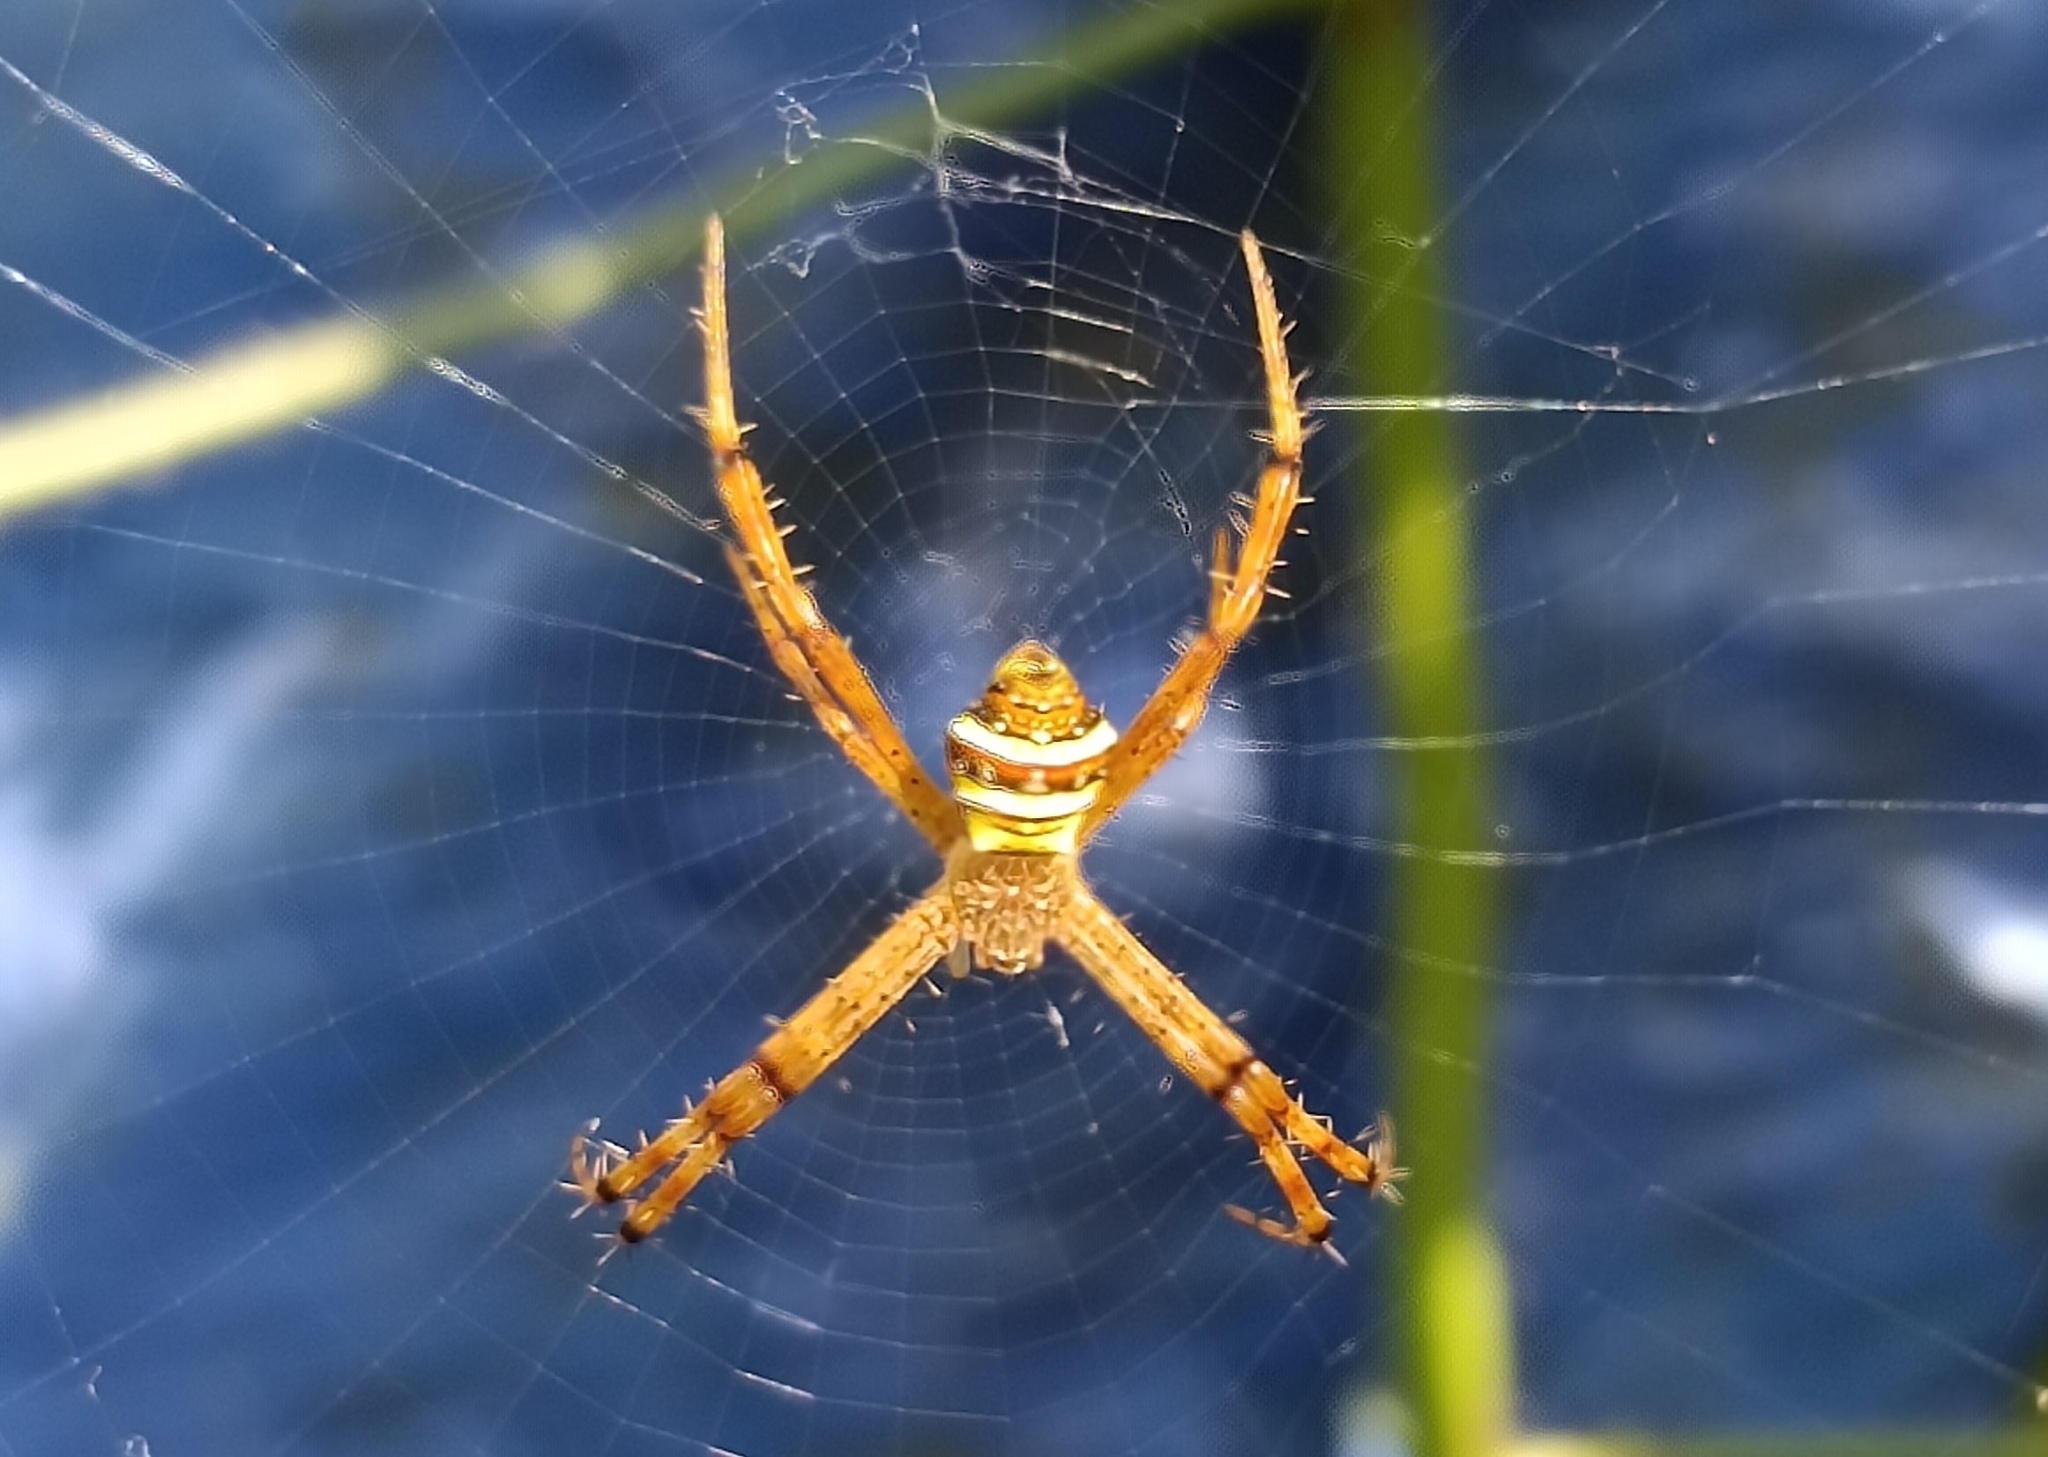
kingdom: Animalia
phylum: Arthropoda
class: Arachnida
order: Araneae
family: Araneidae
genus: Argiope
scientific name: Argiope pulchella
